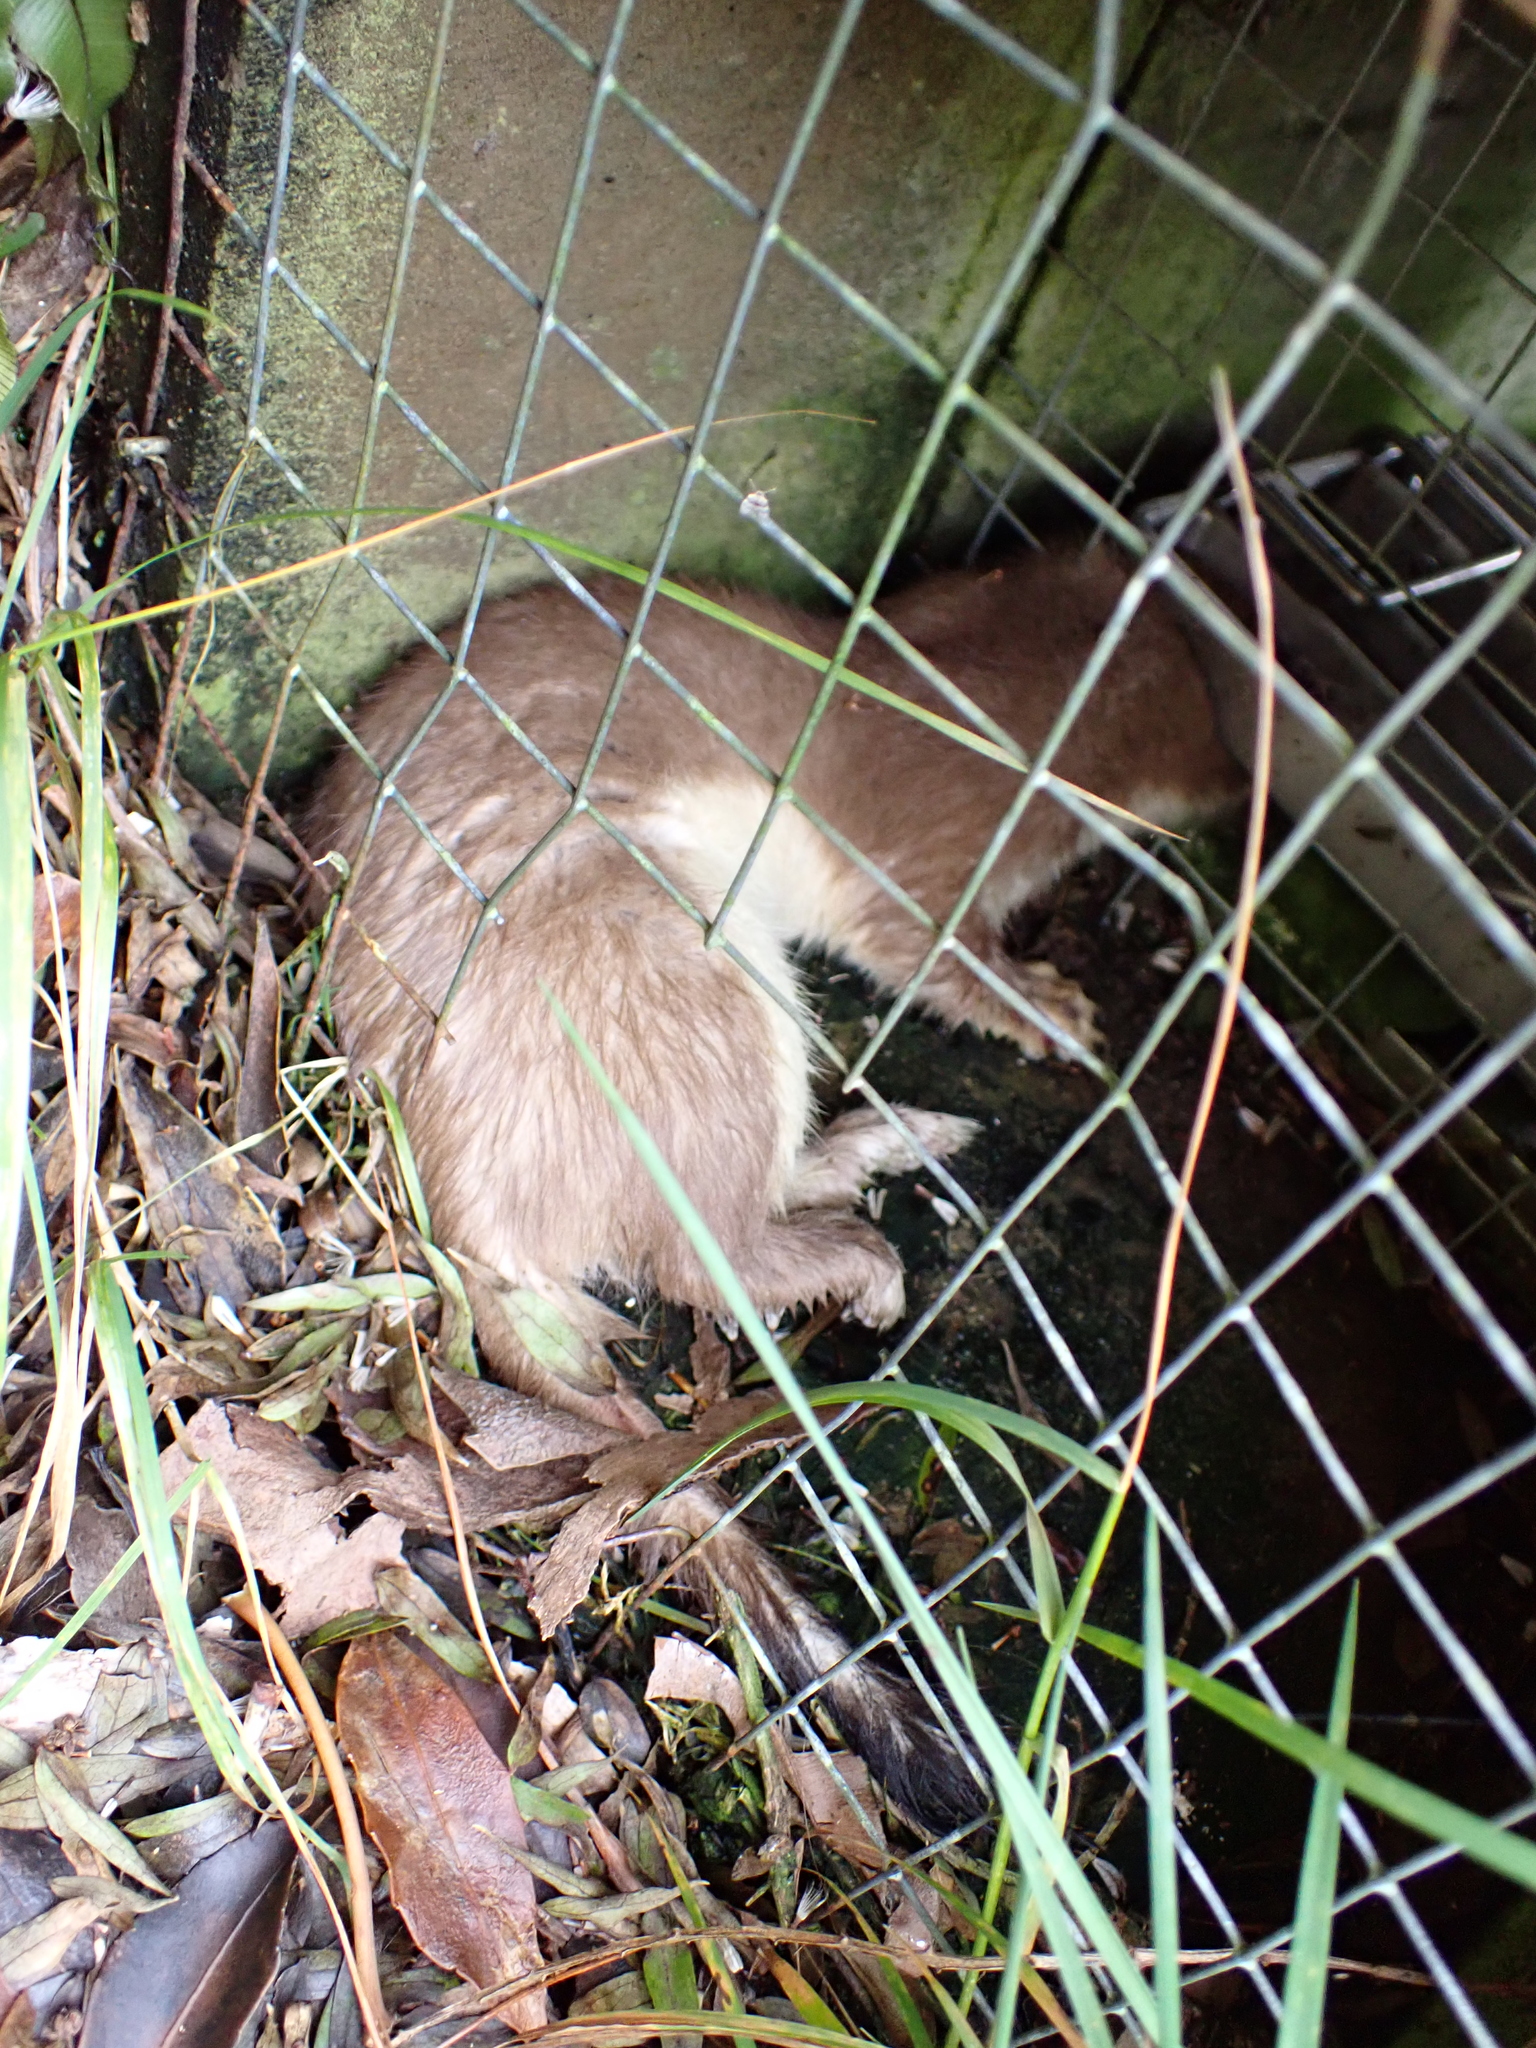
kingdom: Animalia
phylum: Chordata
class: Mammalia
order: Carnivora
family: Mustelidae
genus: Mustela
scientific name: Mustela erminea
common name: Stoat
